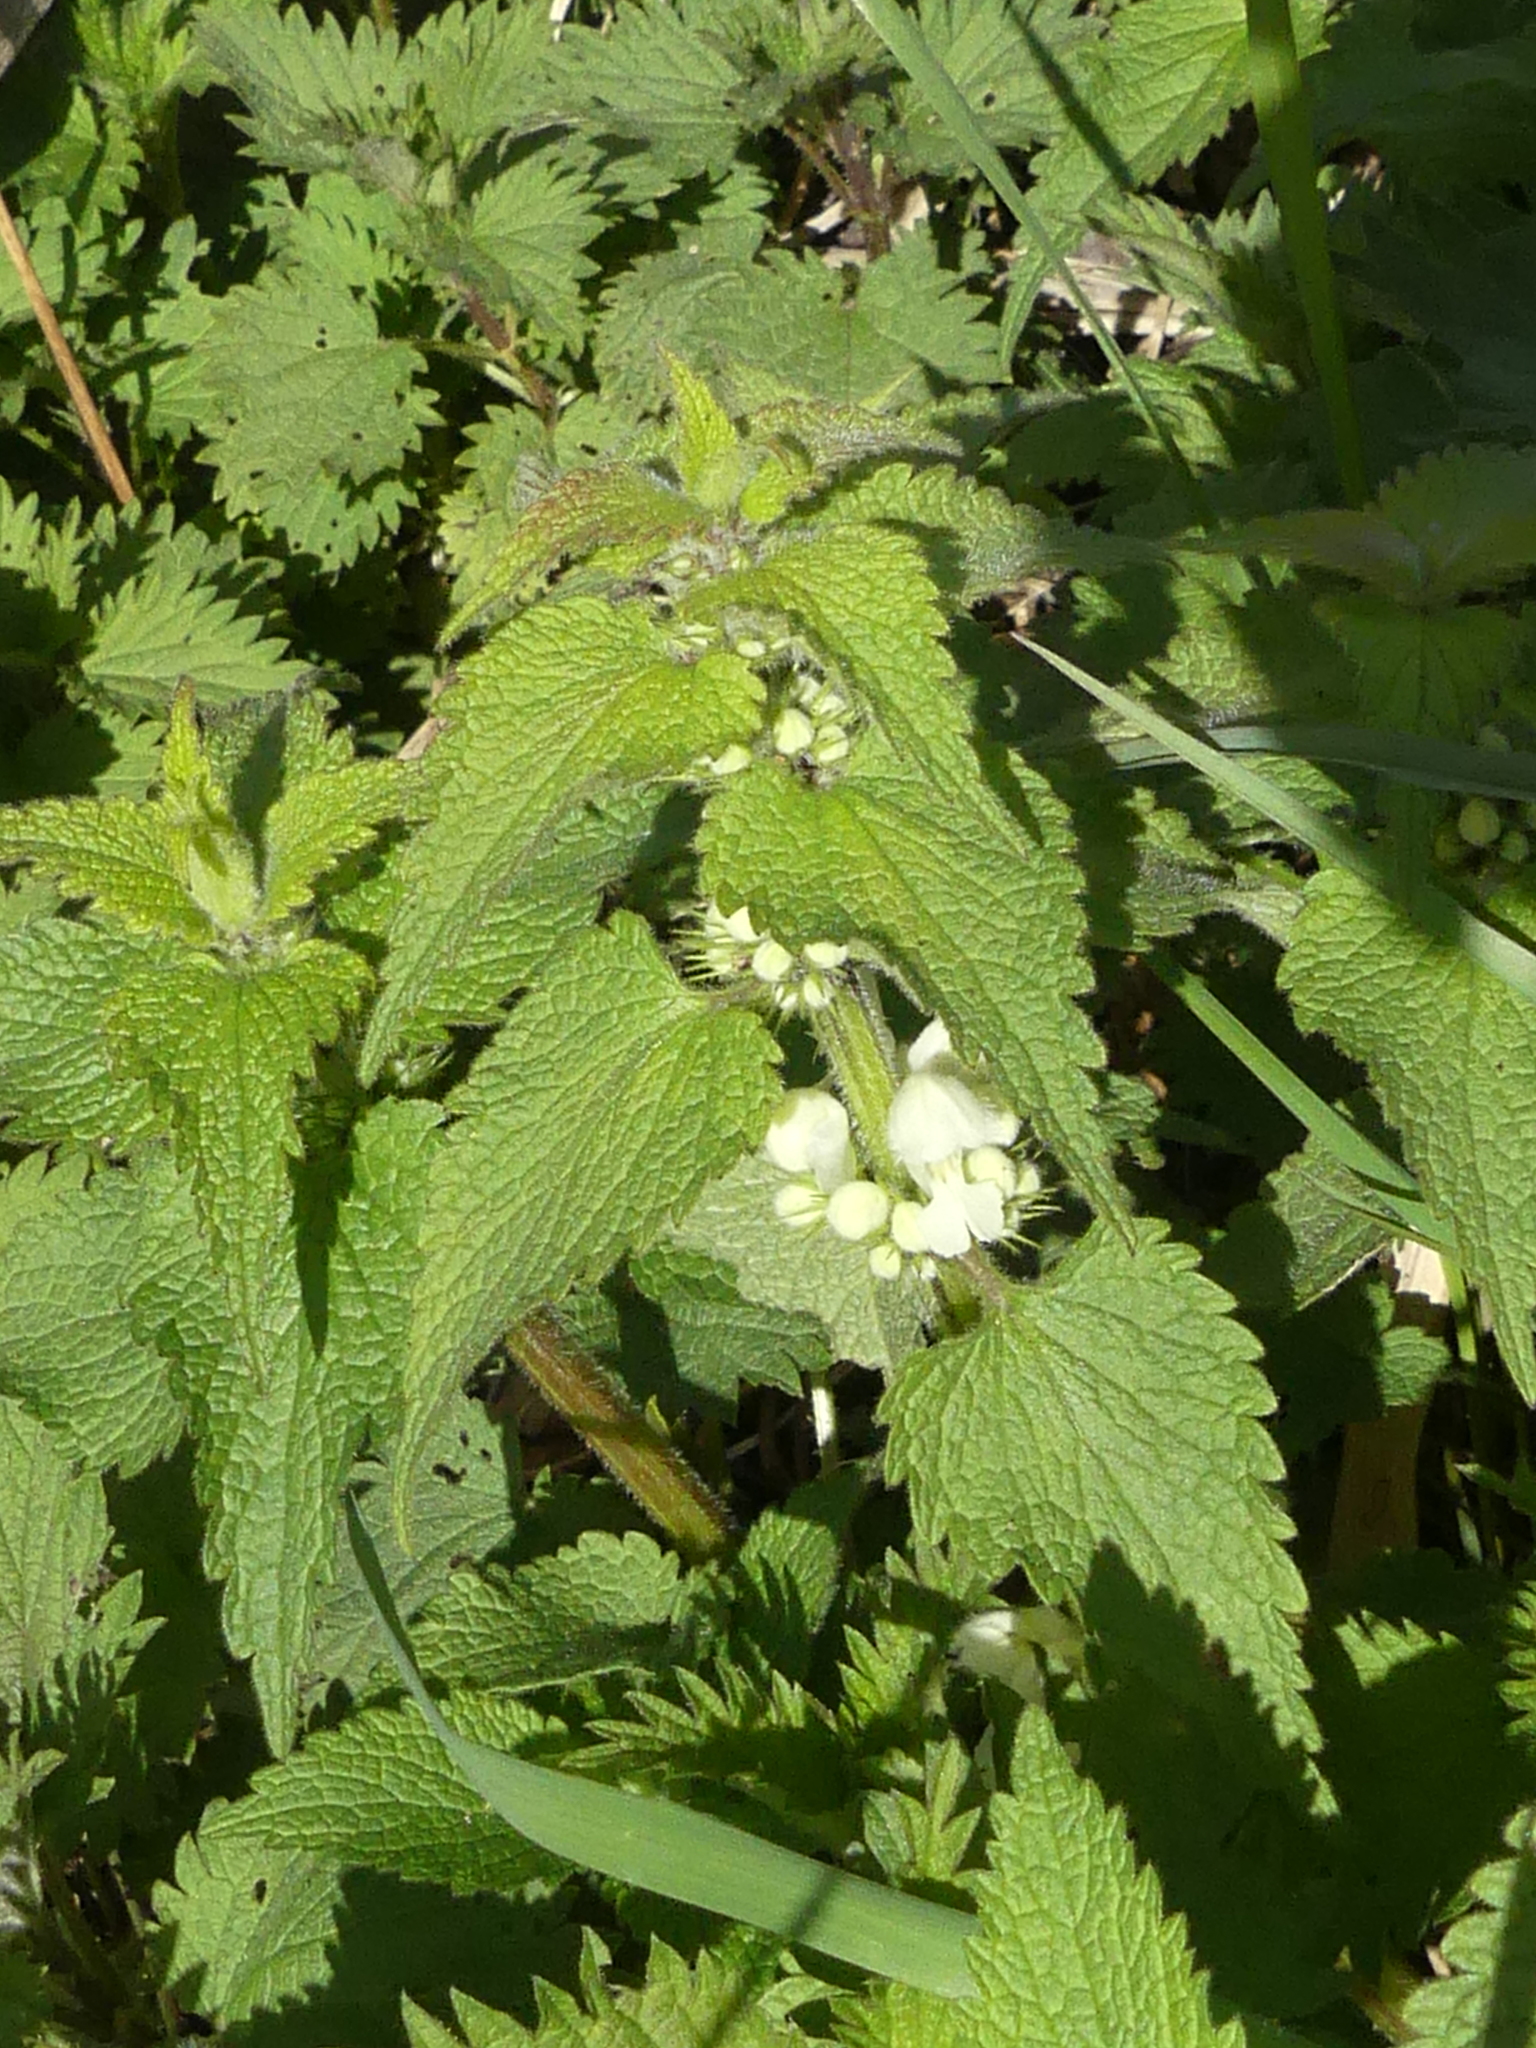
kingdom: Plantae
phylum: Tracheophyta
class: Magnoliopsida
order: Lamiales
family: Lamiaceae
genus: Lamium
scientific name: Lamium album
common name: White dead-nettle
